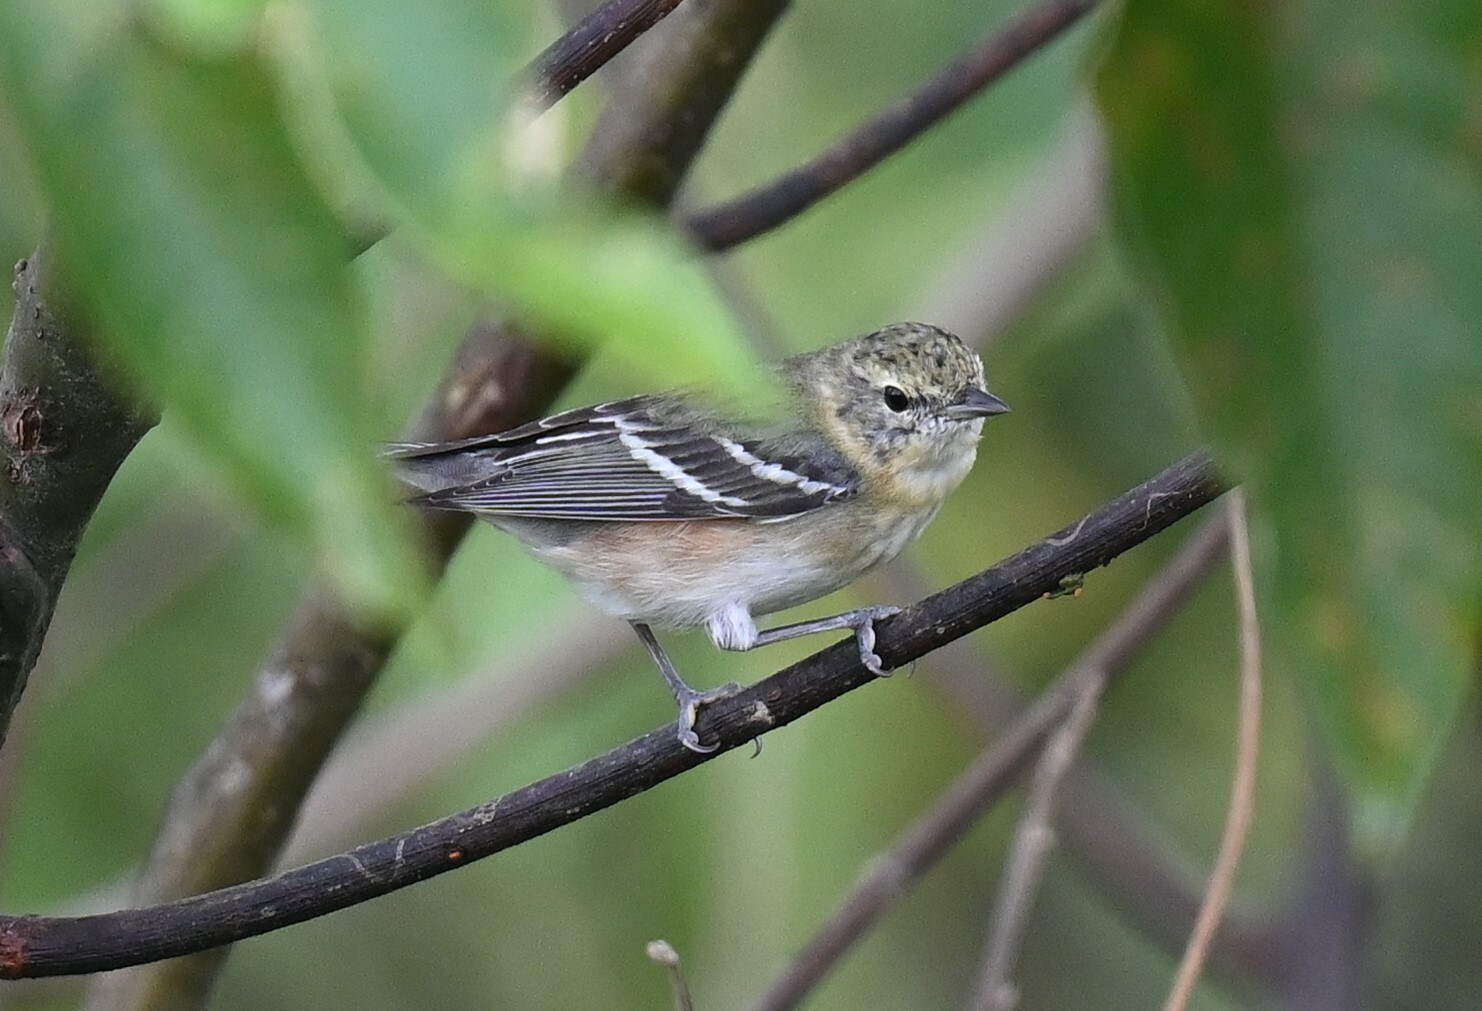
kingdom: Animalia
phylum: Chordata
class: Aves
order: Passeriformes
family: Parulidae
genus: Setophaga
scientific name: Setophaga castanea
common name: Bay-breasted warbler
